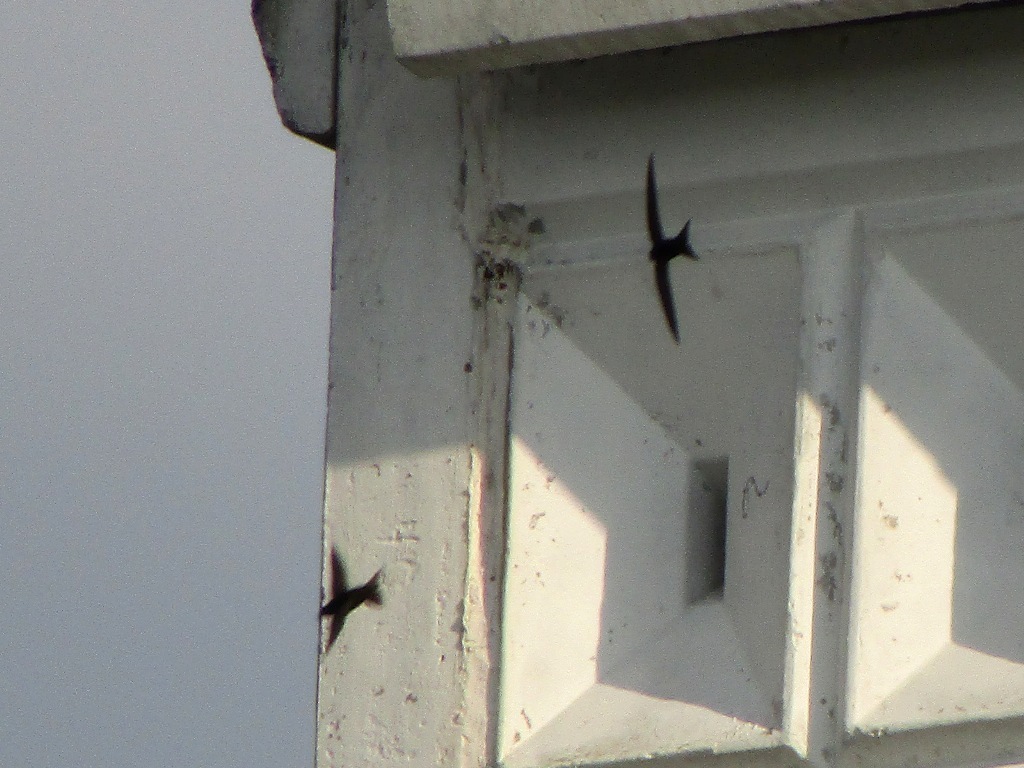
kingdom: Animalia
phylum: Chordata
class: Aves
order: Apodiformes
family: Apodidae
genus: Apus
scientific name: Apus apus
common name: Common swift
